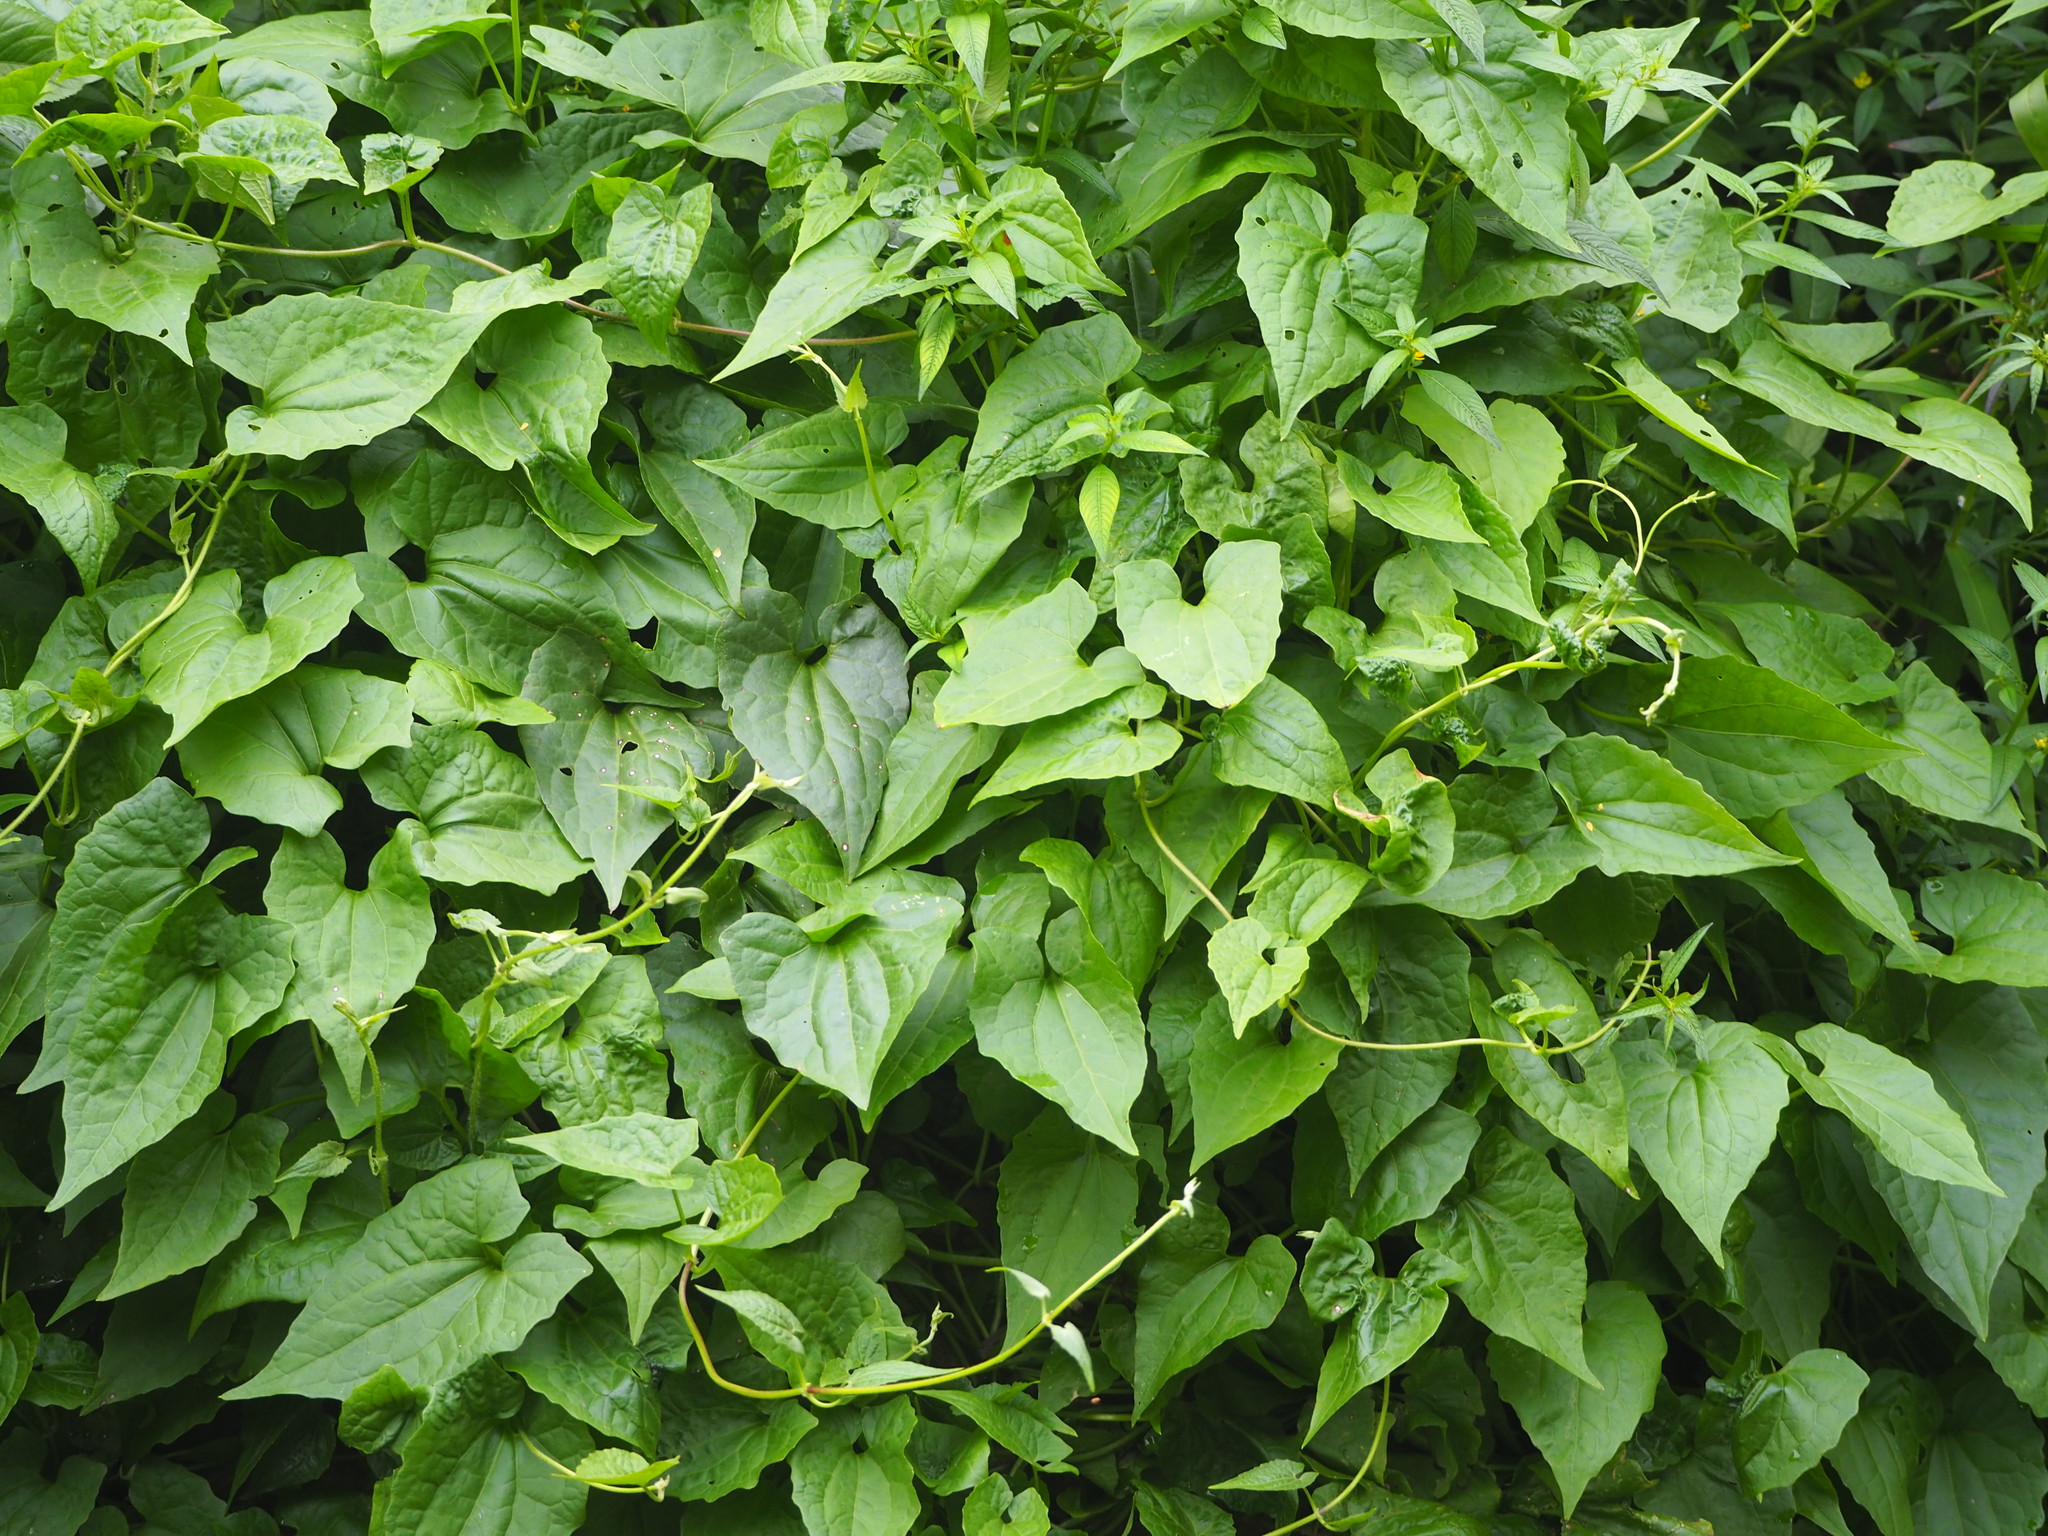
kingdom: Plantae
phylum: Tracheophyta
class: Magnoliopsida
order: Asterales
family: Asteraceae
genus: Mikania
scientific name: Mikania micrantha
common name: Mile-a-minute
